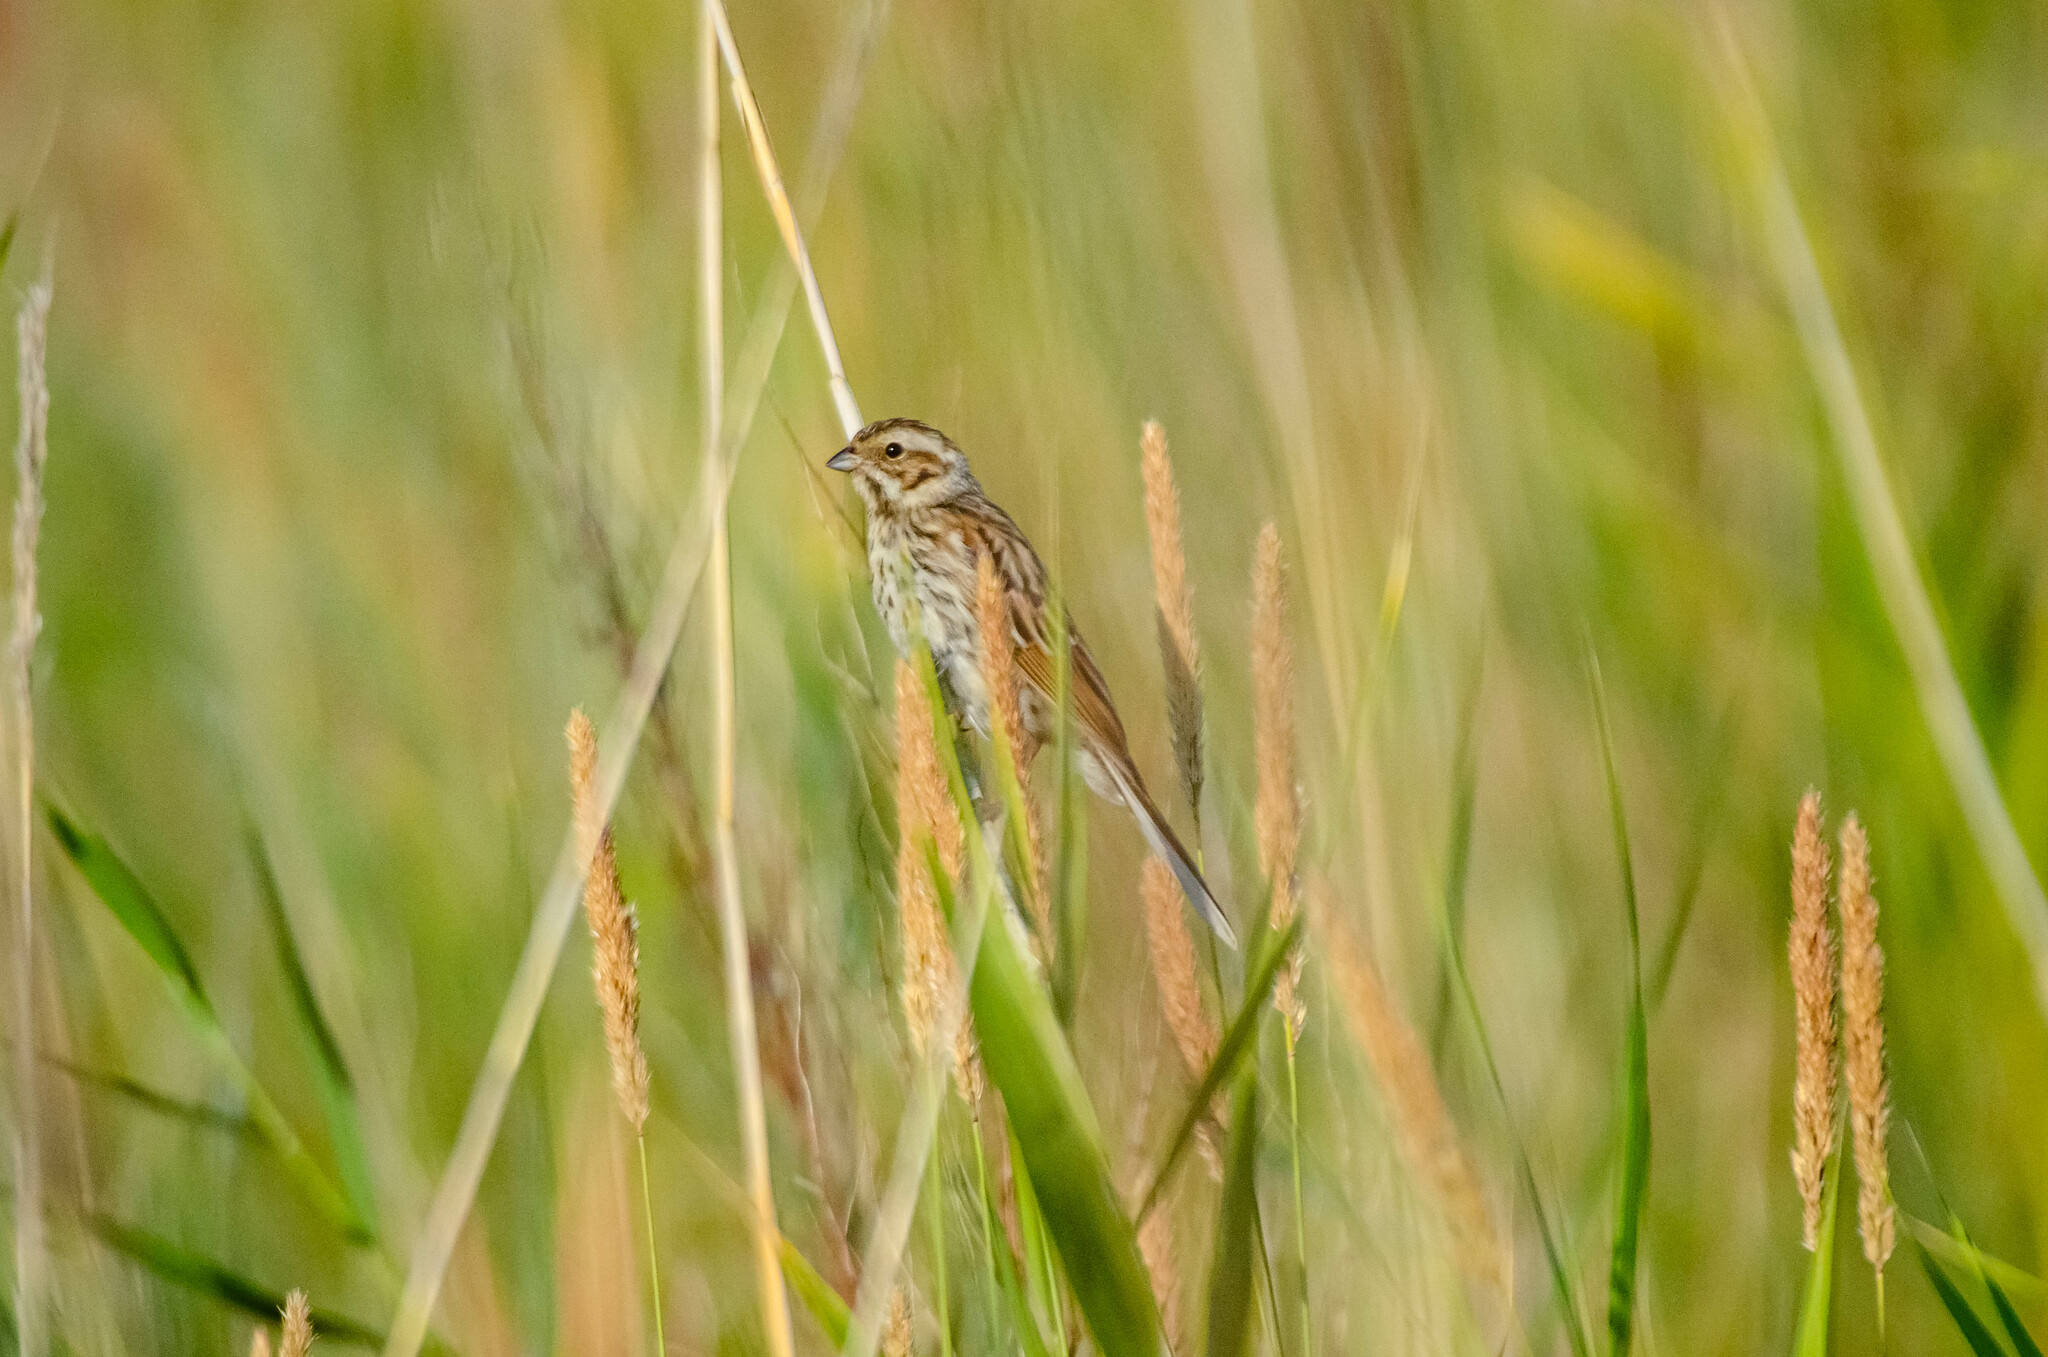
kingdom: Animalia
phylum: Chordata
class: Aves
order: Passeriformes
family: Emberizidae
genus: Emberiza
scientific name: Emberiza schoeniclus
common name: Reed bunting
